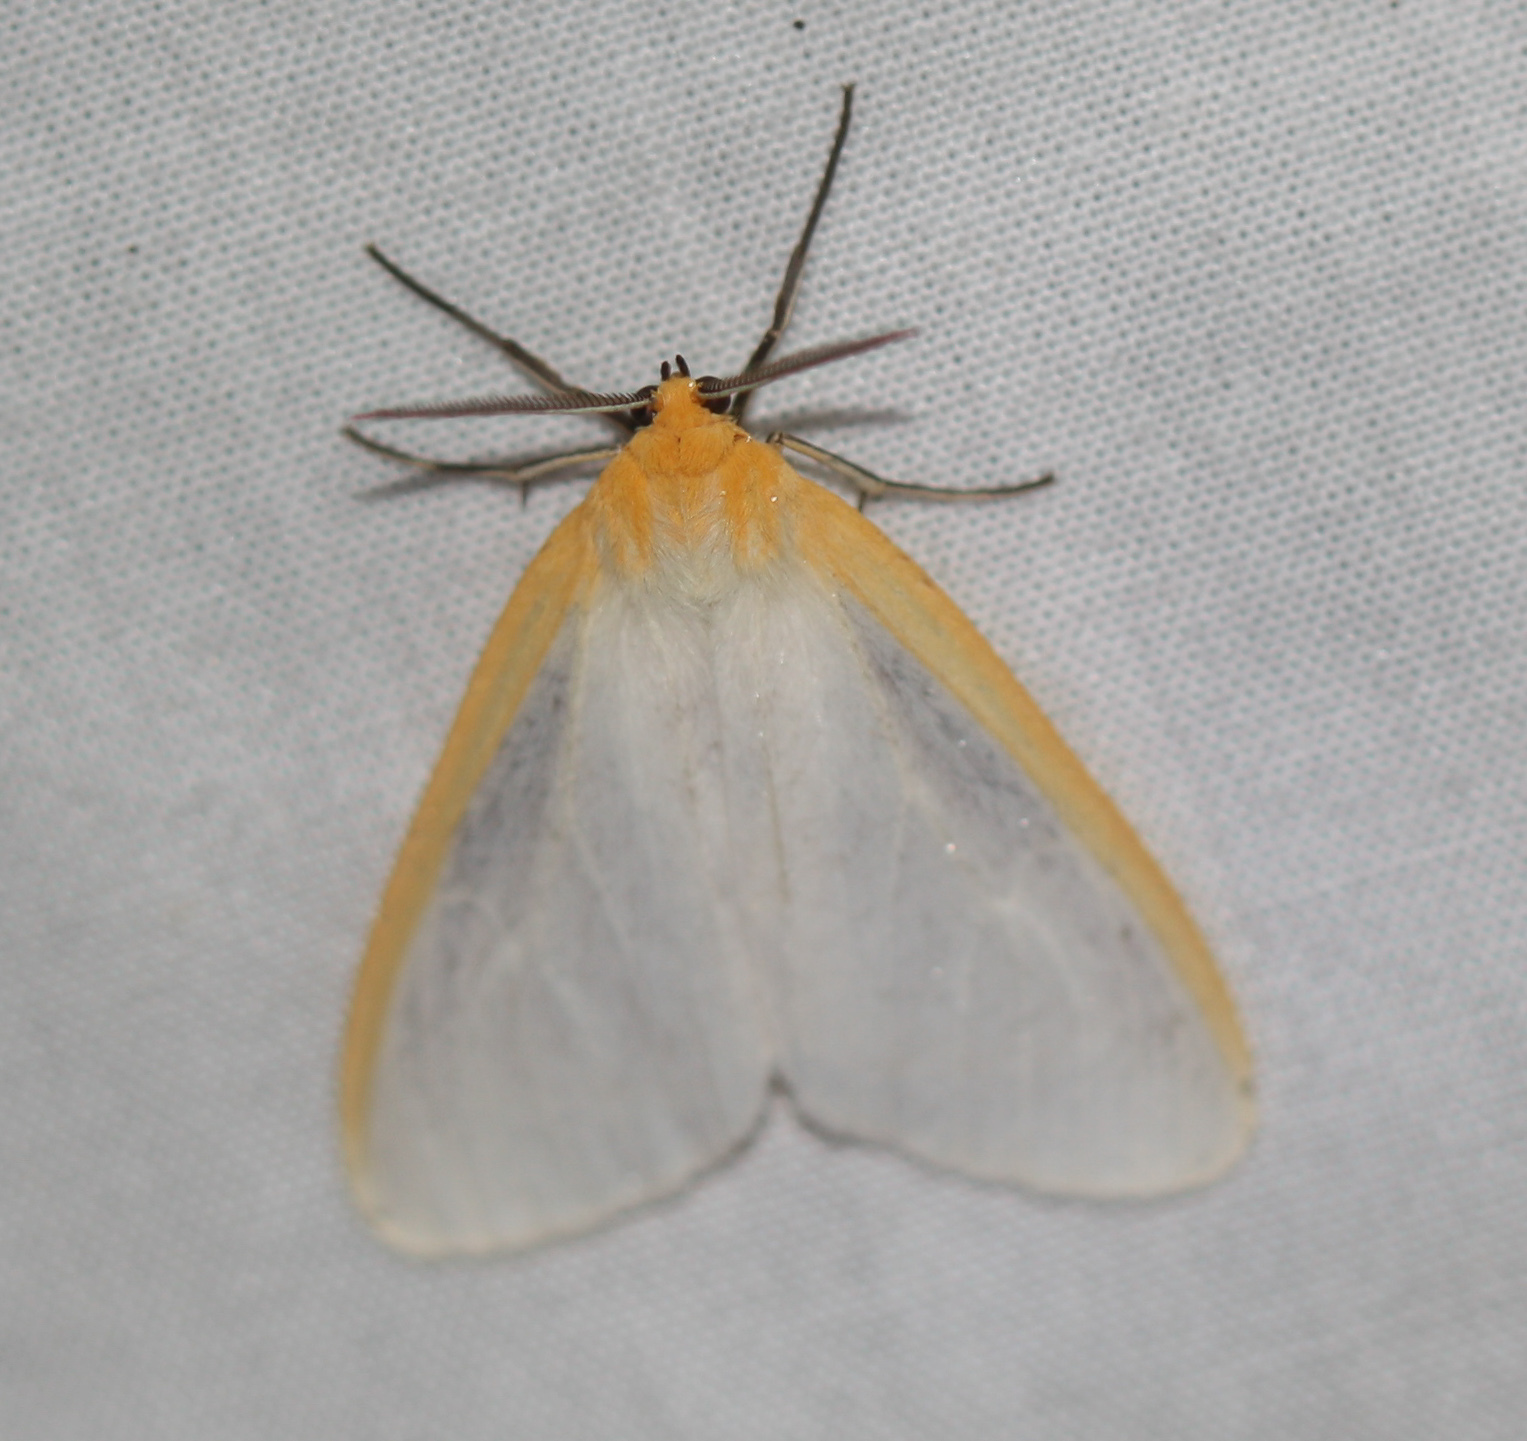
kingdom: Animalia
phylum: Arthropoda
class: Insecta
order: Lepidoptera
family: Erebidae
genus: Cycnia
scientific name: Cycnia tenera
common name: Delicate cycnia moth
